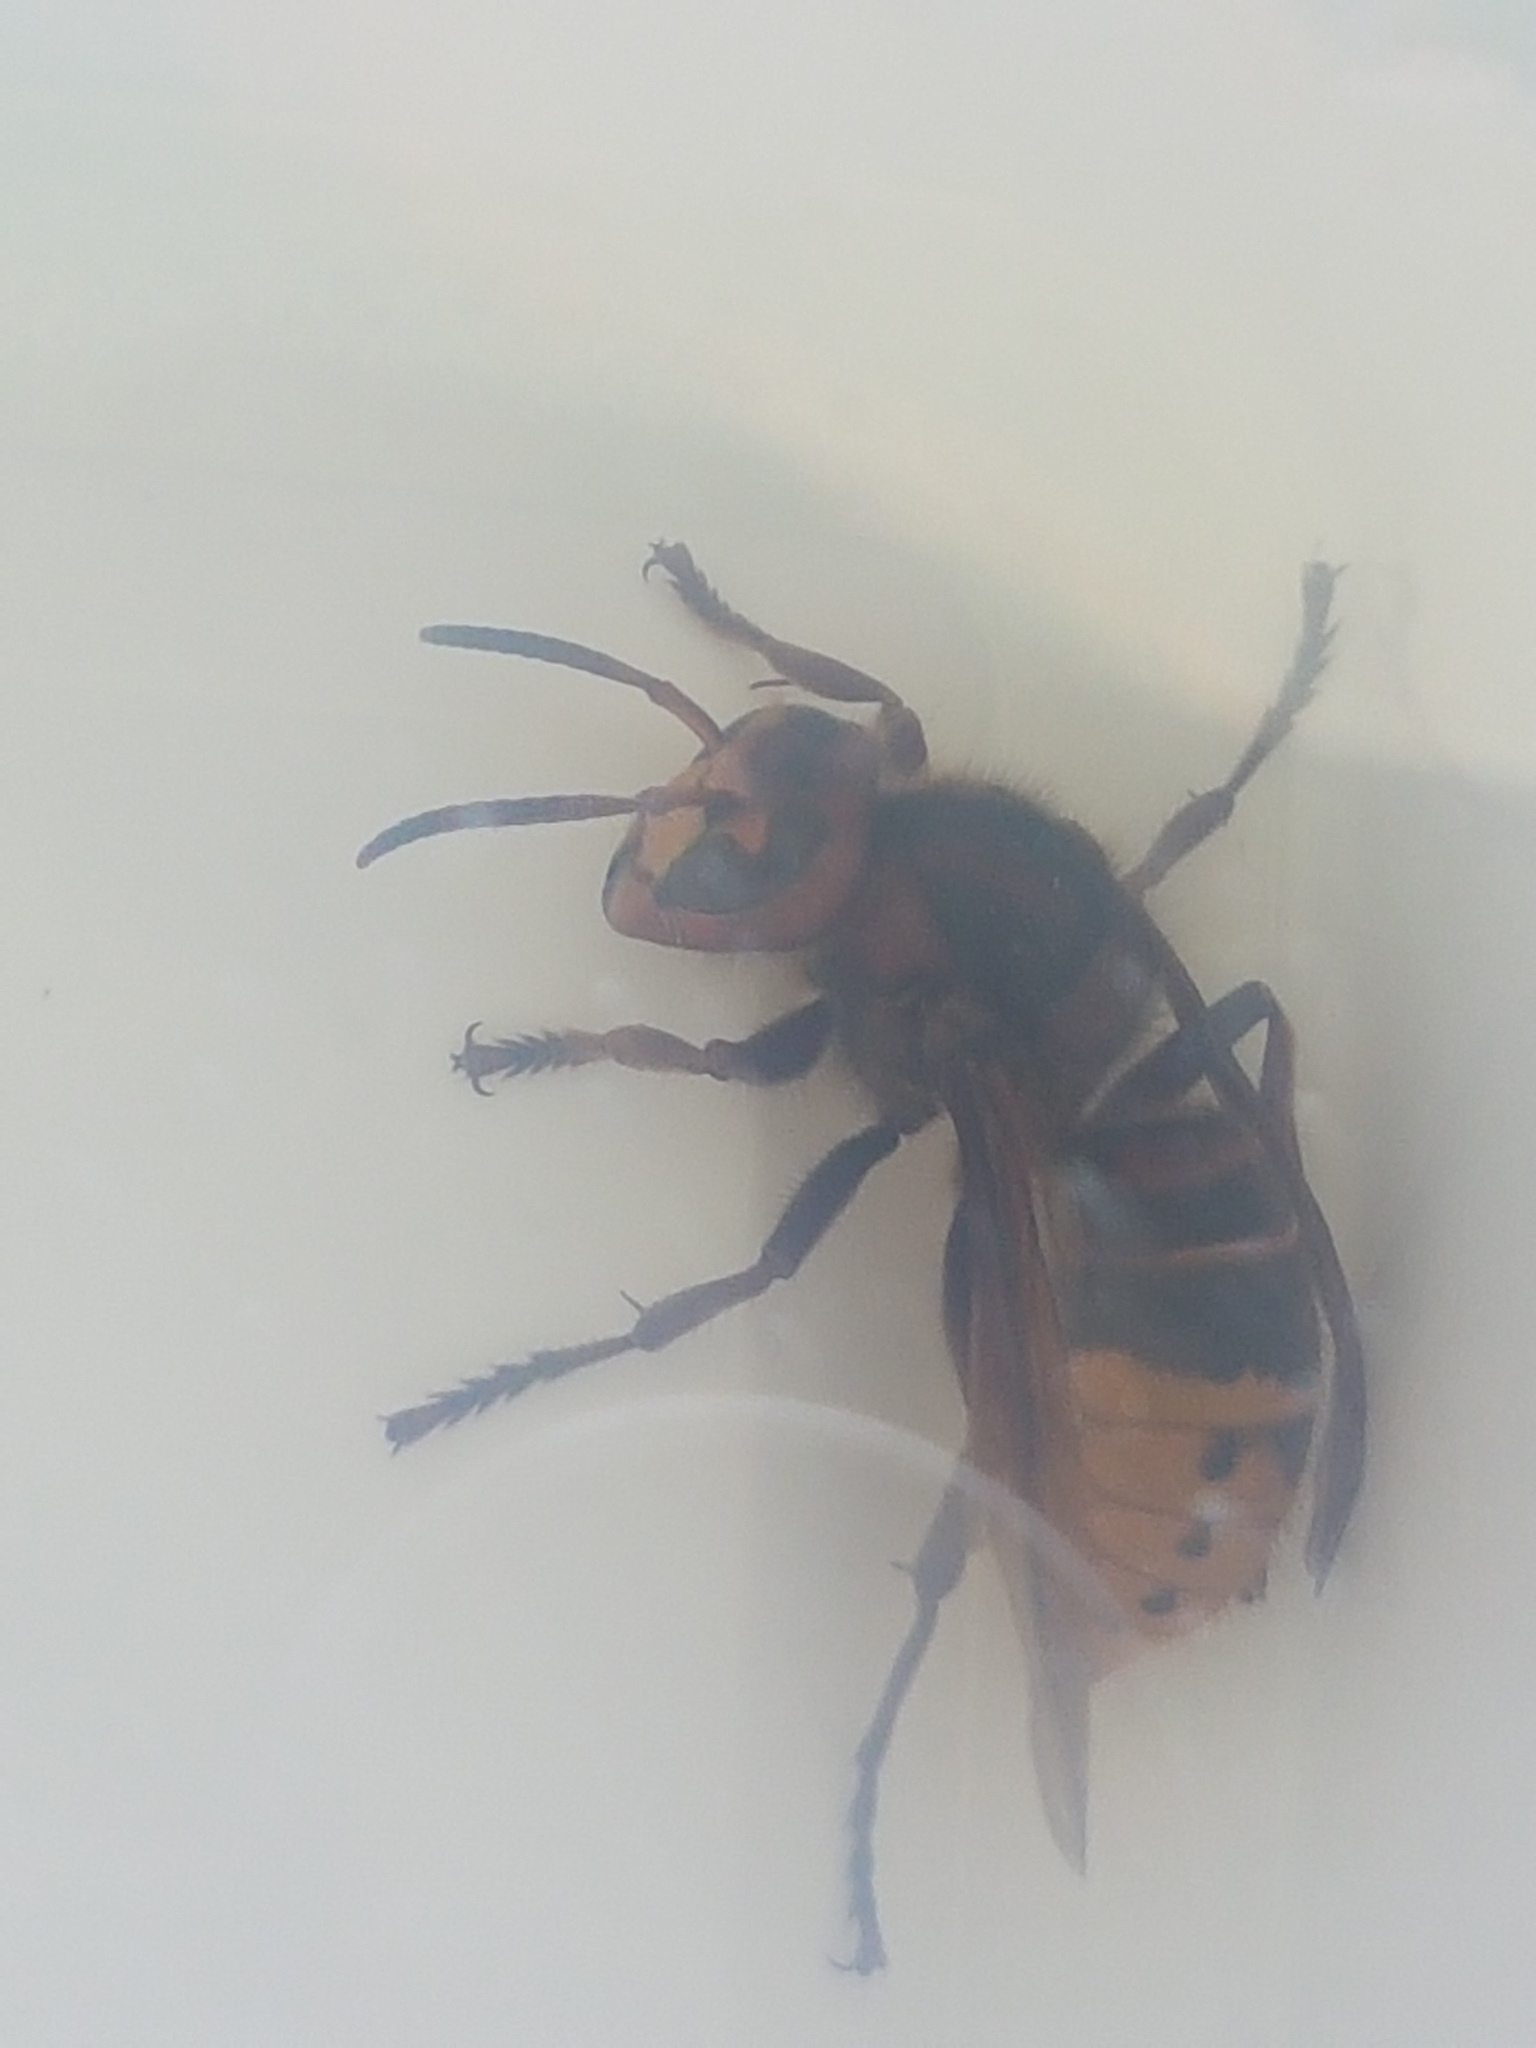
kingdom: Animalia
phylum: Arthropoda
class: Insecta
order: Hymenoptera
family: Vespidae
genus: Vespa
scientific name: Vespa crabro
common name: Hornet
